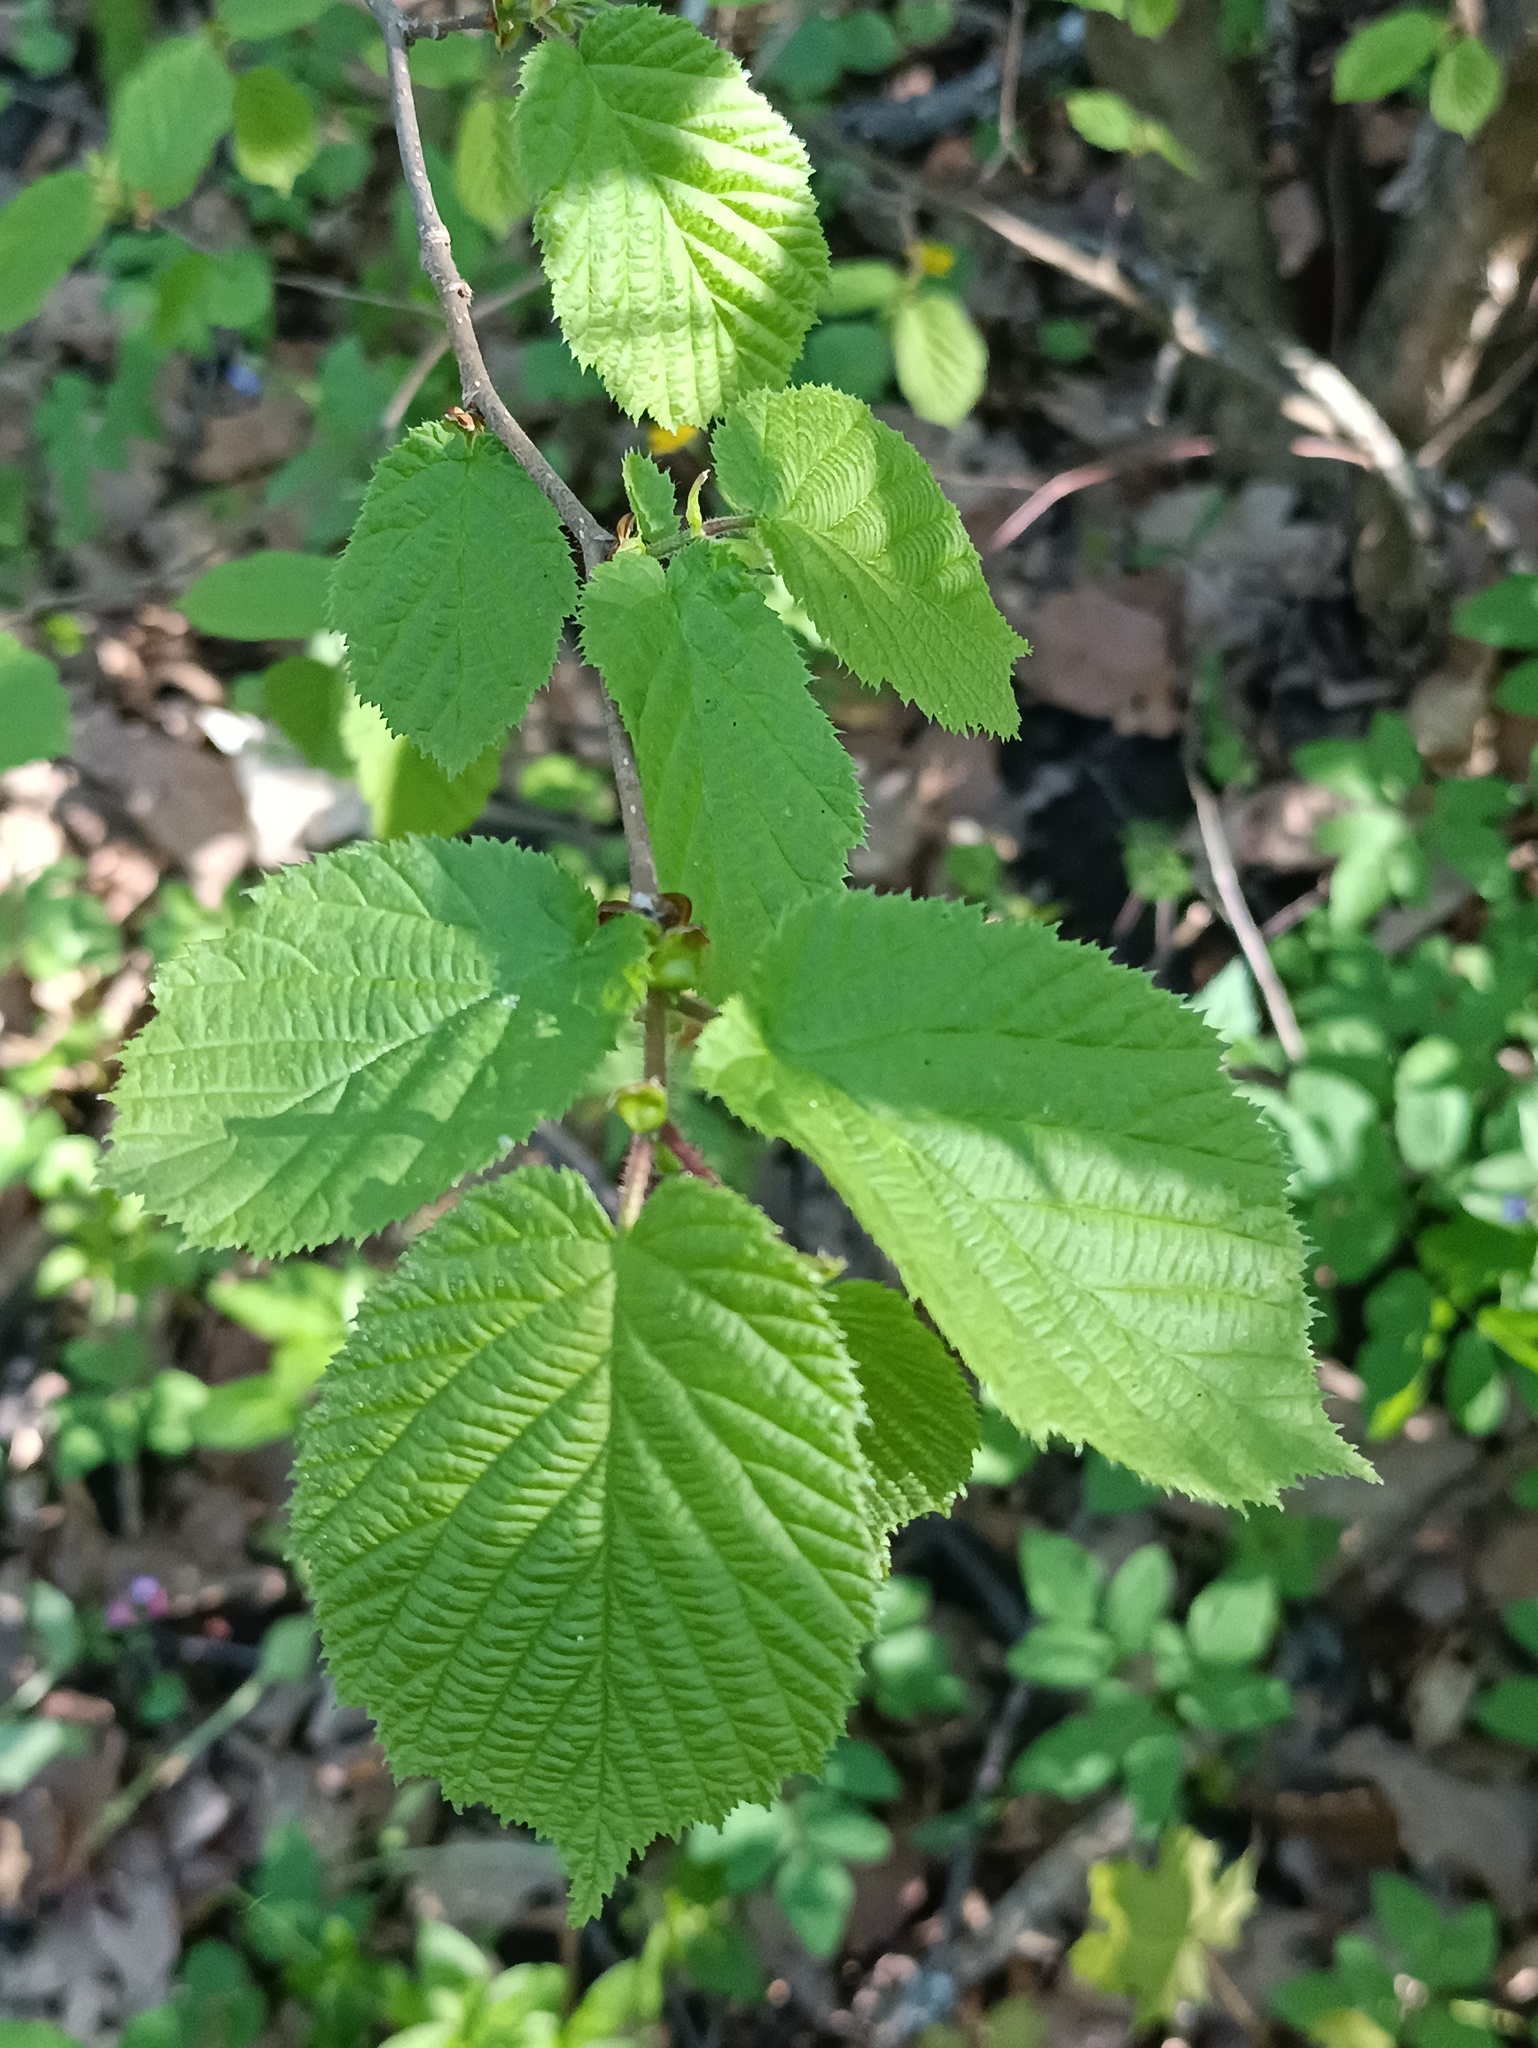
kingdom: Plantae
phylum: Tracheophyta
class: Magnoliopsida
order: Fagales
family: Betulaceae
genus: Corylus
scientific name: Corylus avellana
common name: European hazel
